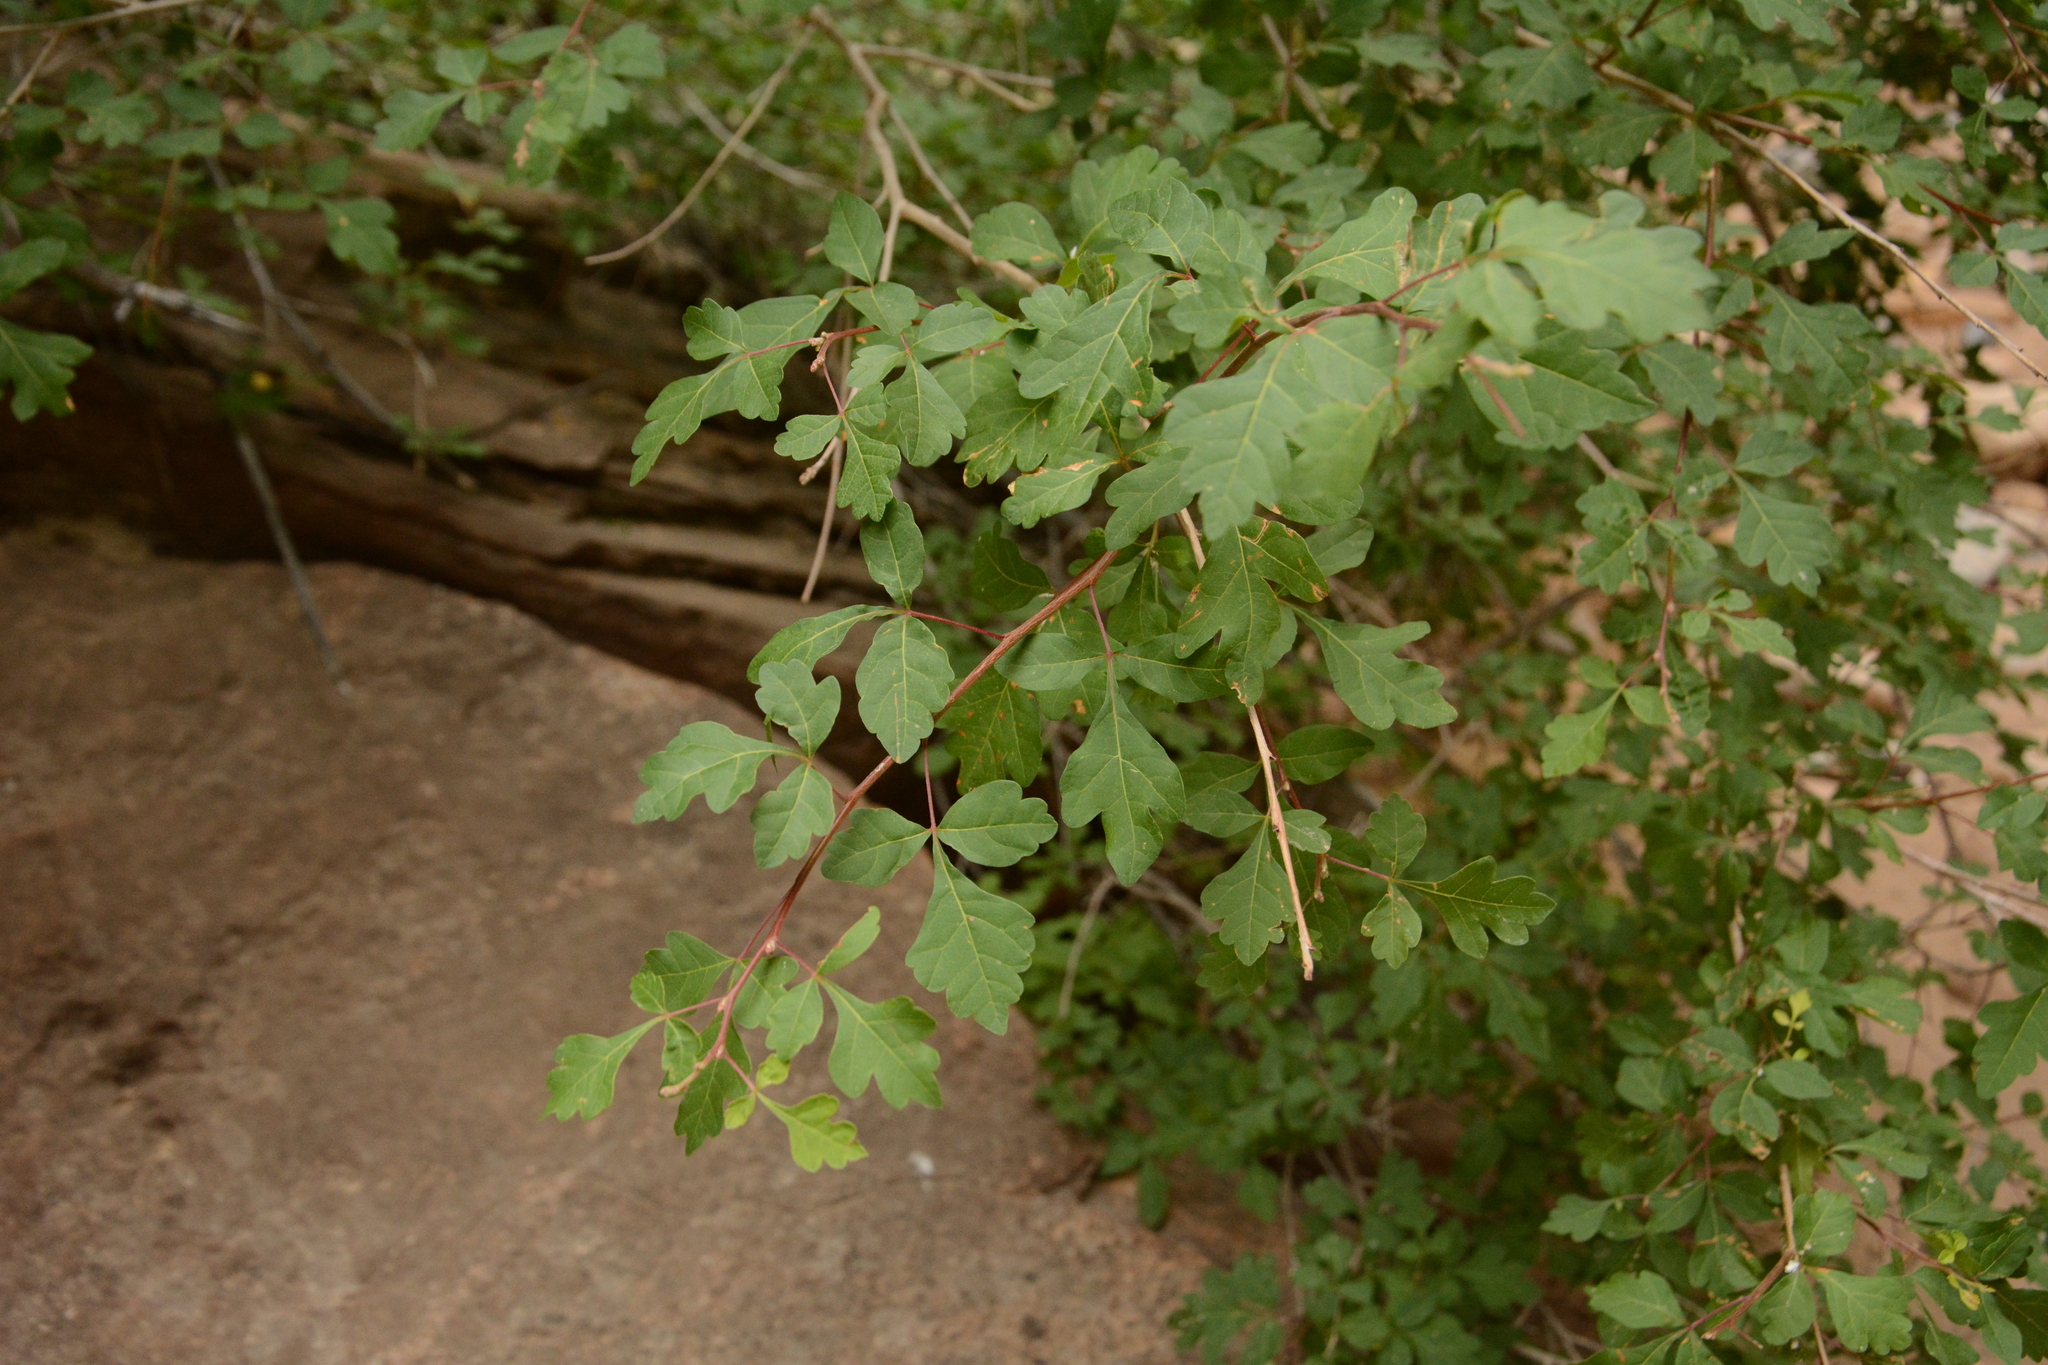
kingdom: Plantae
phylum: Tracheophyta
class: Magnoliopsida
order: Sapindales
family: Anacardiaceae
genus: Rhus
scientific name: Rhus aromatica
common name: Aromatic sumac
